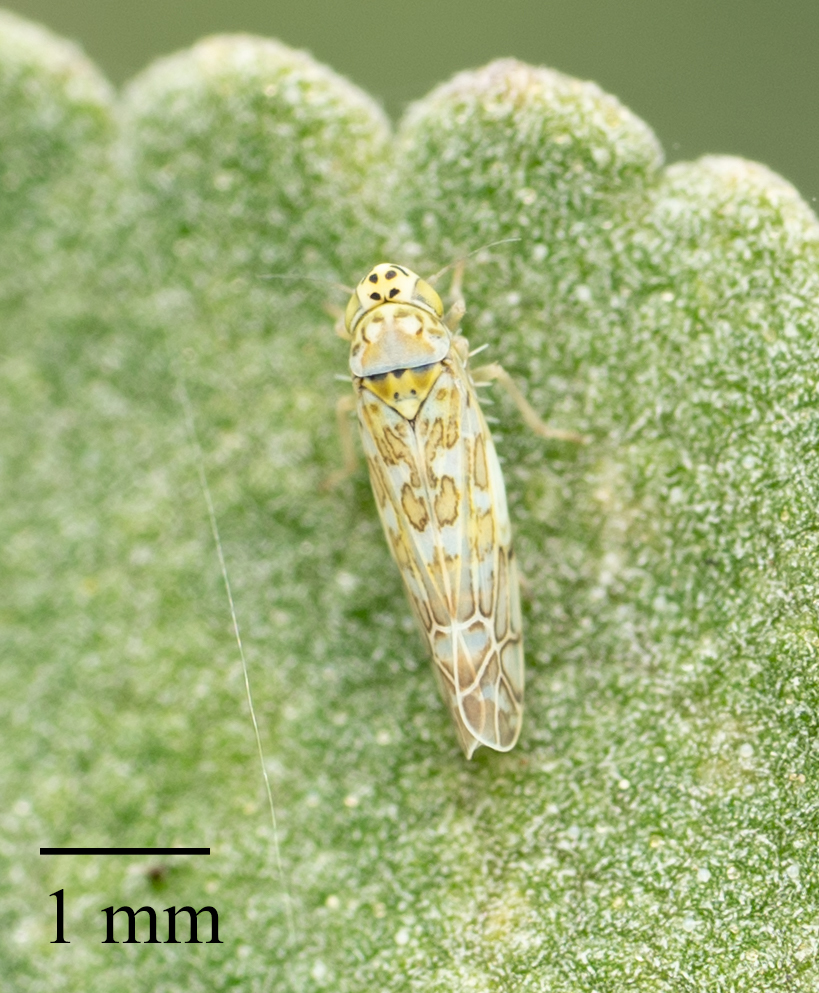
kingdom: Animalia
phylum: Arthropoda
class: Insecta
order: Hemiptera
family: Cicadellidae
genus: Eupteryx
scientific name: Eupteryx decemnotata
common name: Ligurian leafhopper
